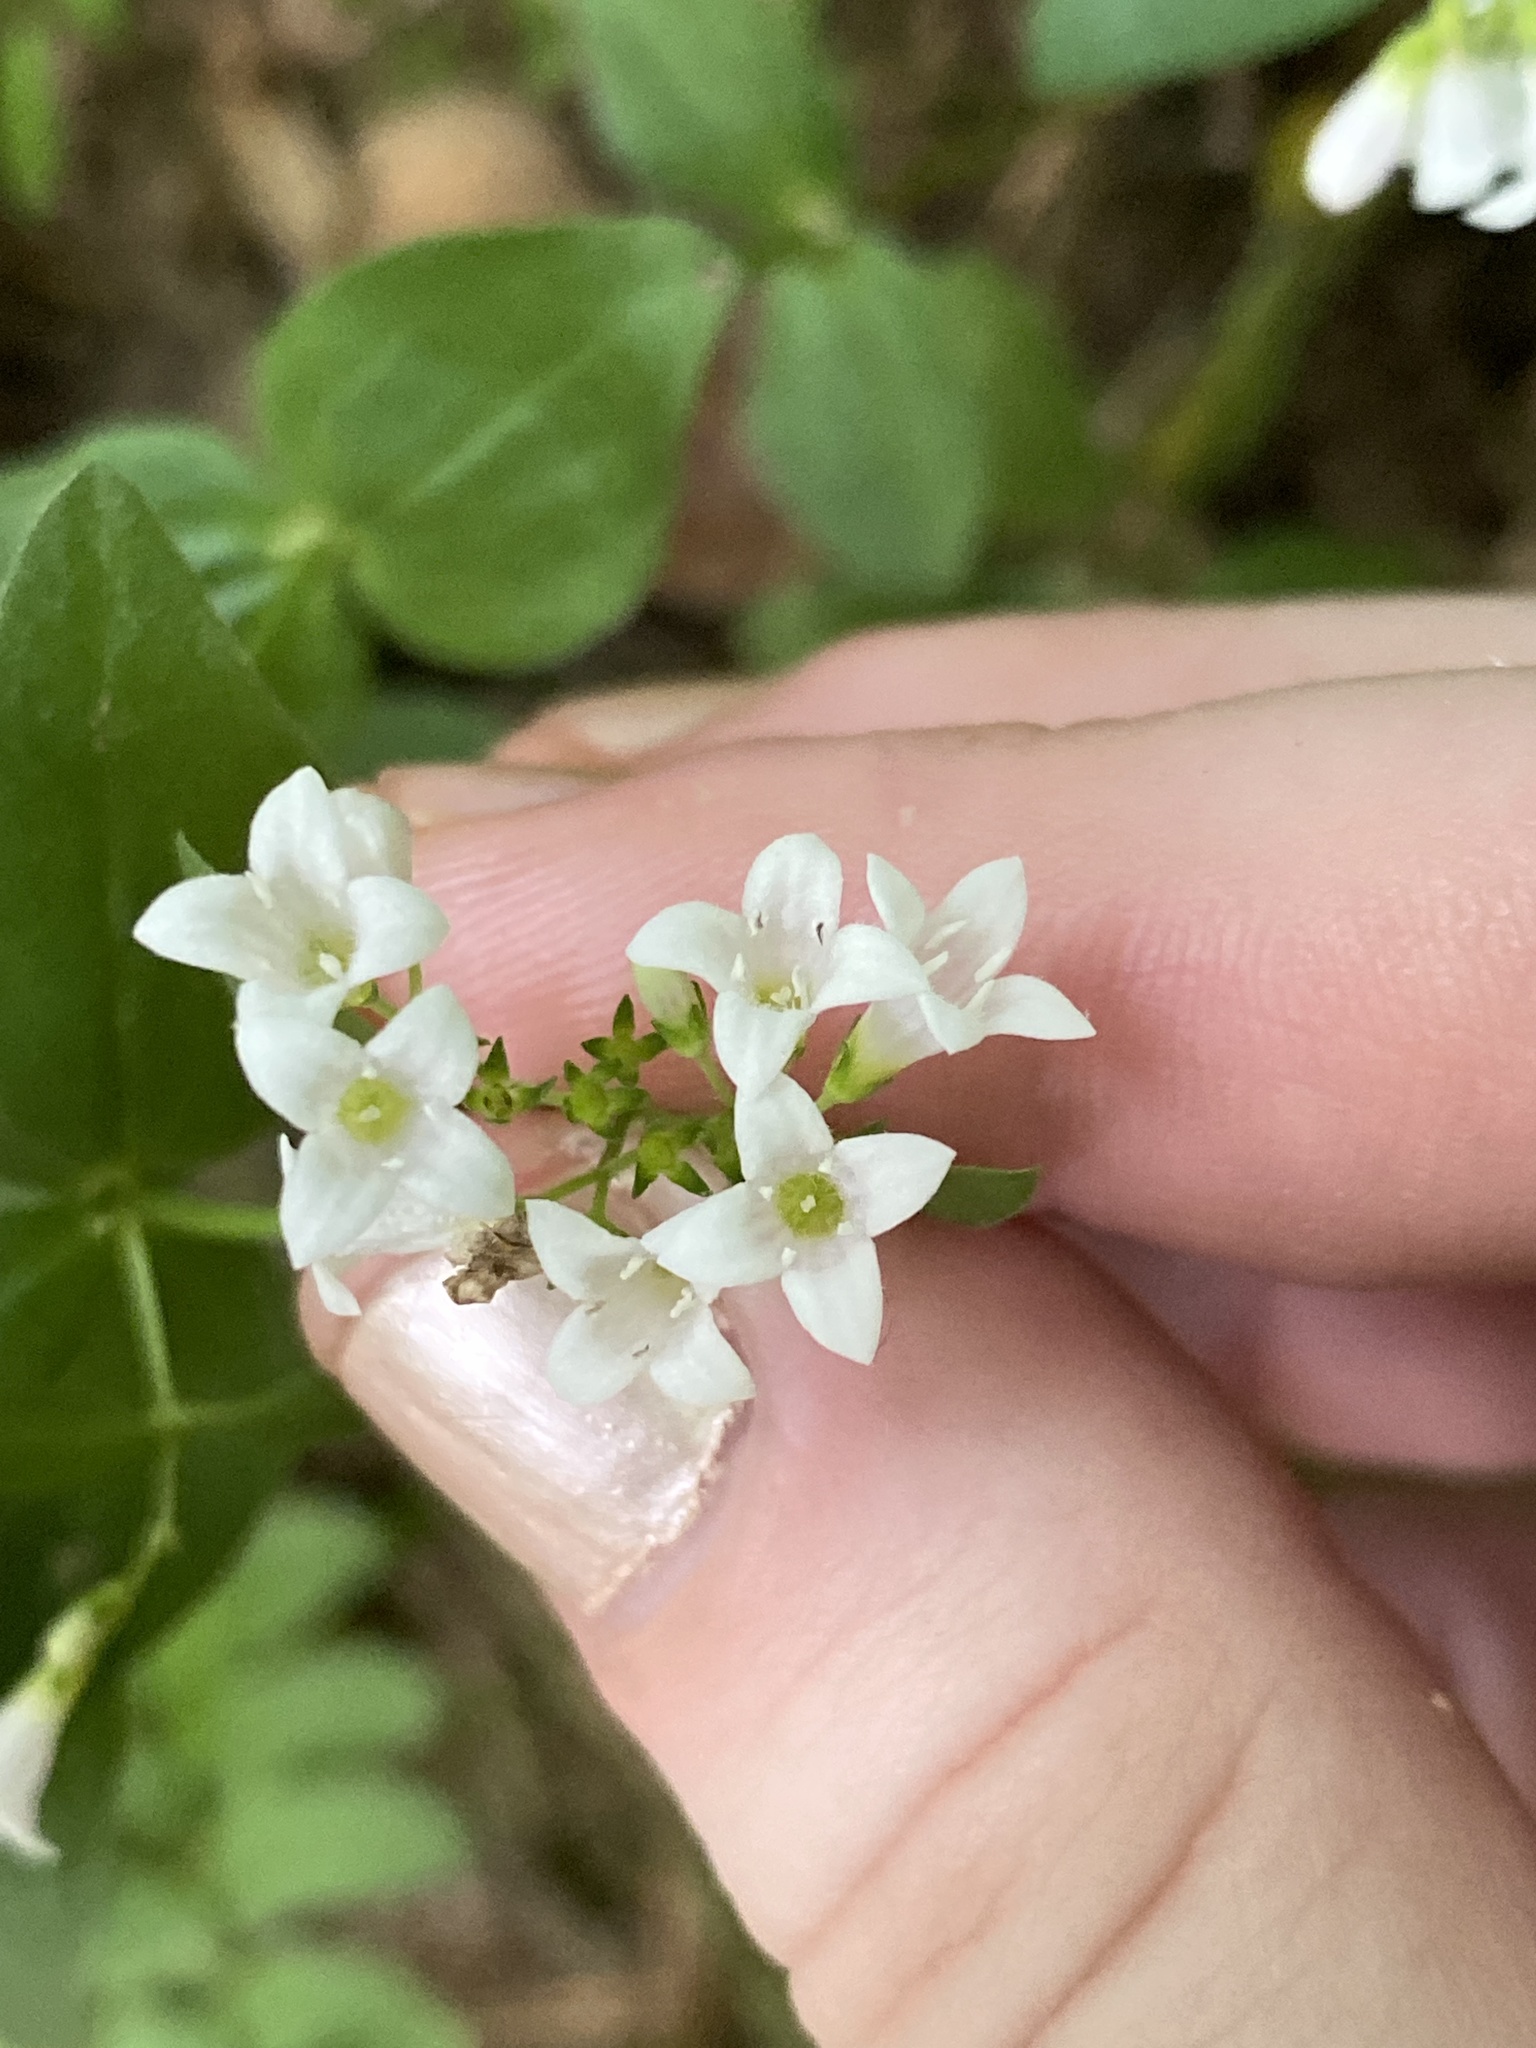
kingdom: Plantae
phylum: Tracheophyta
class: Magnoliopsida
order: Gentianales
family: Rubiaceae
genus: Houstonia
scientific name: Houstonia purpurea
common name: Summer bluet
